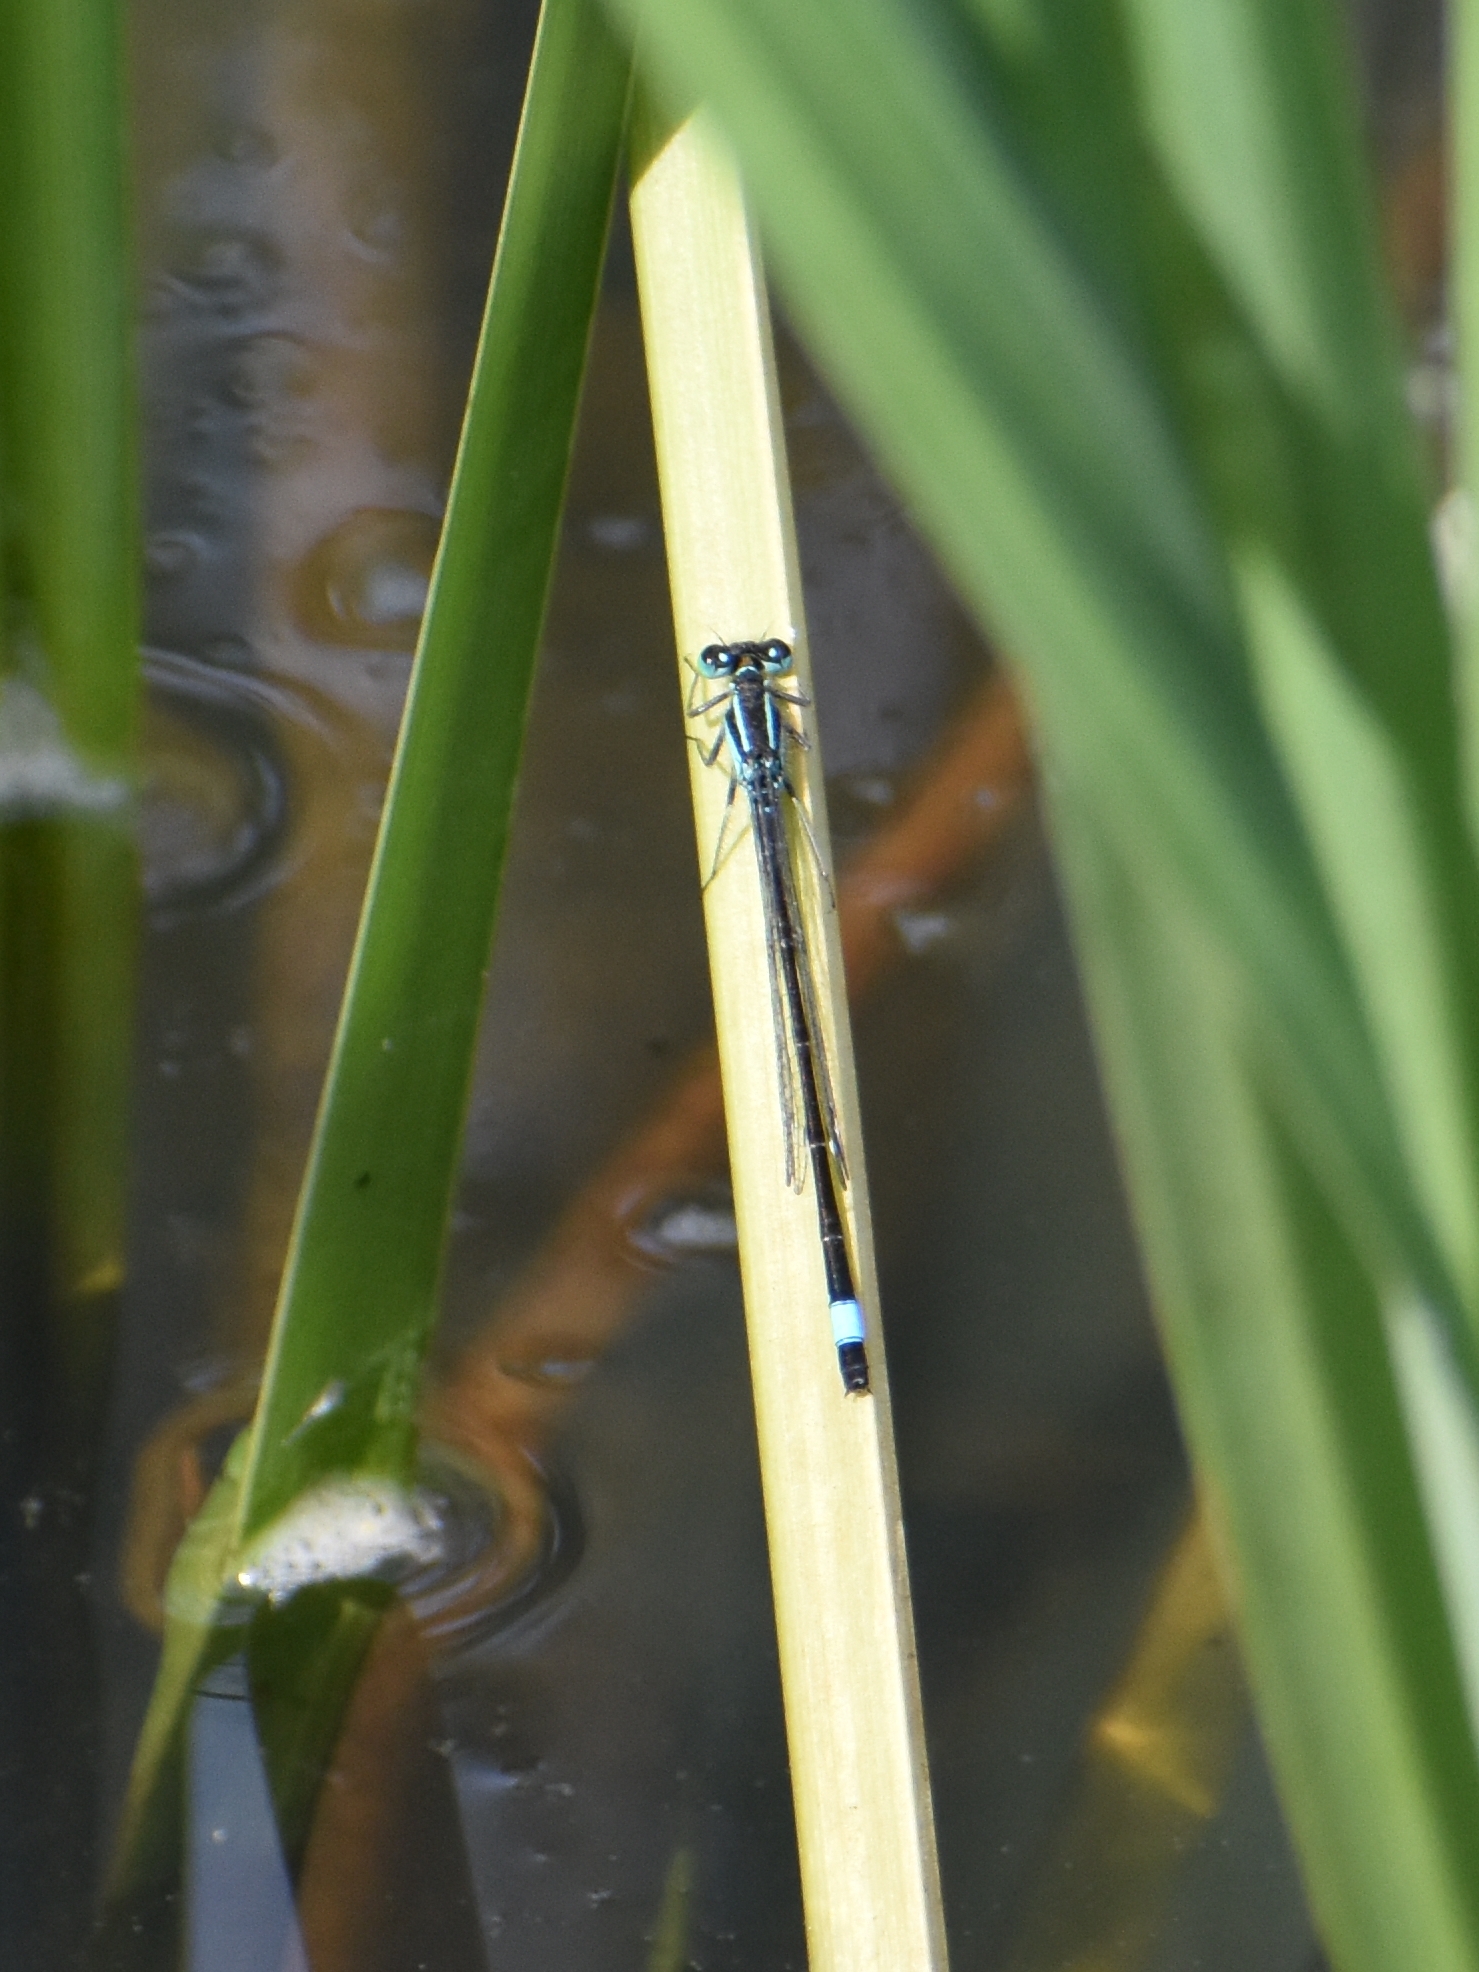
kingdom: Animalia
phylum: Arthropoda
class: Insecta
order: Odonata
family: Coenagrionidae
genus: Ischnura
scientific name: Ischnura elegans
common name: Blue-tailed damselfly
